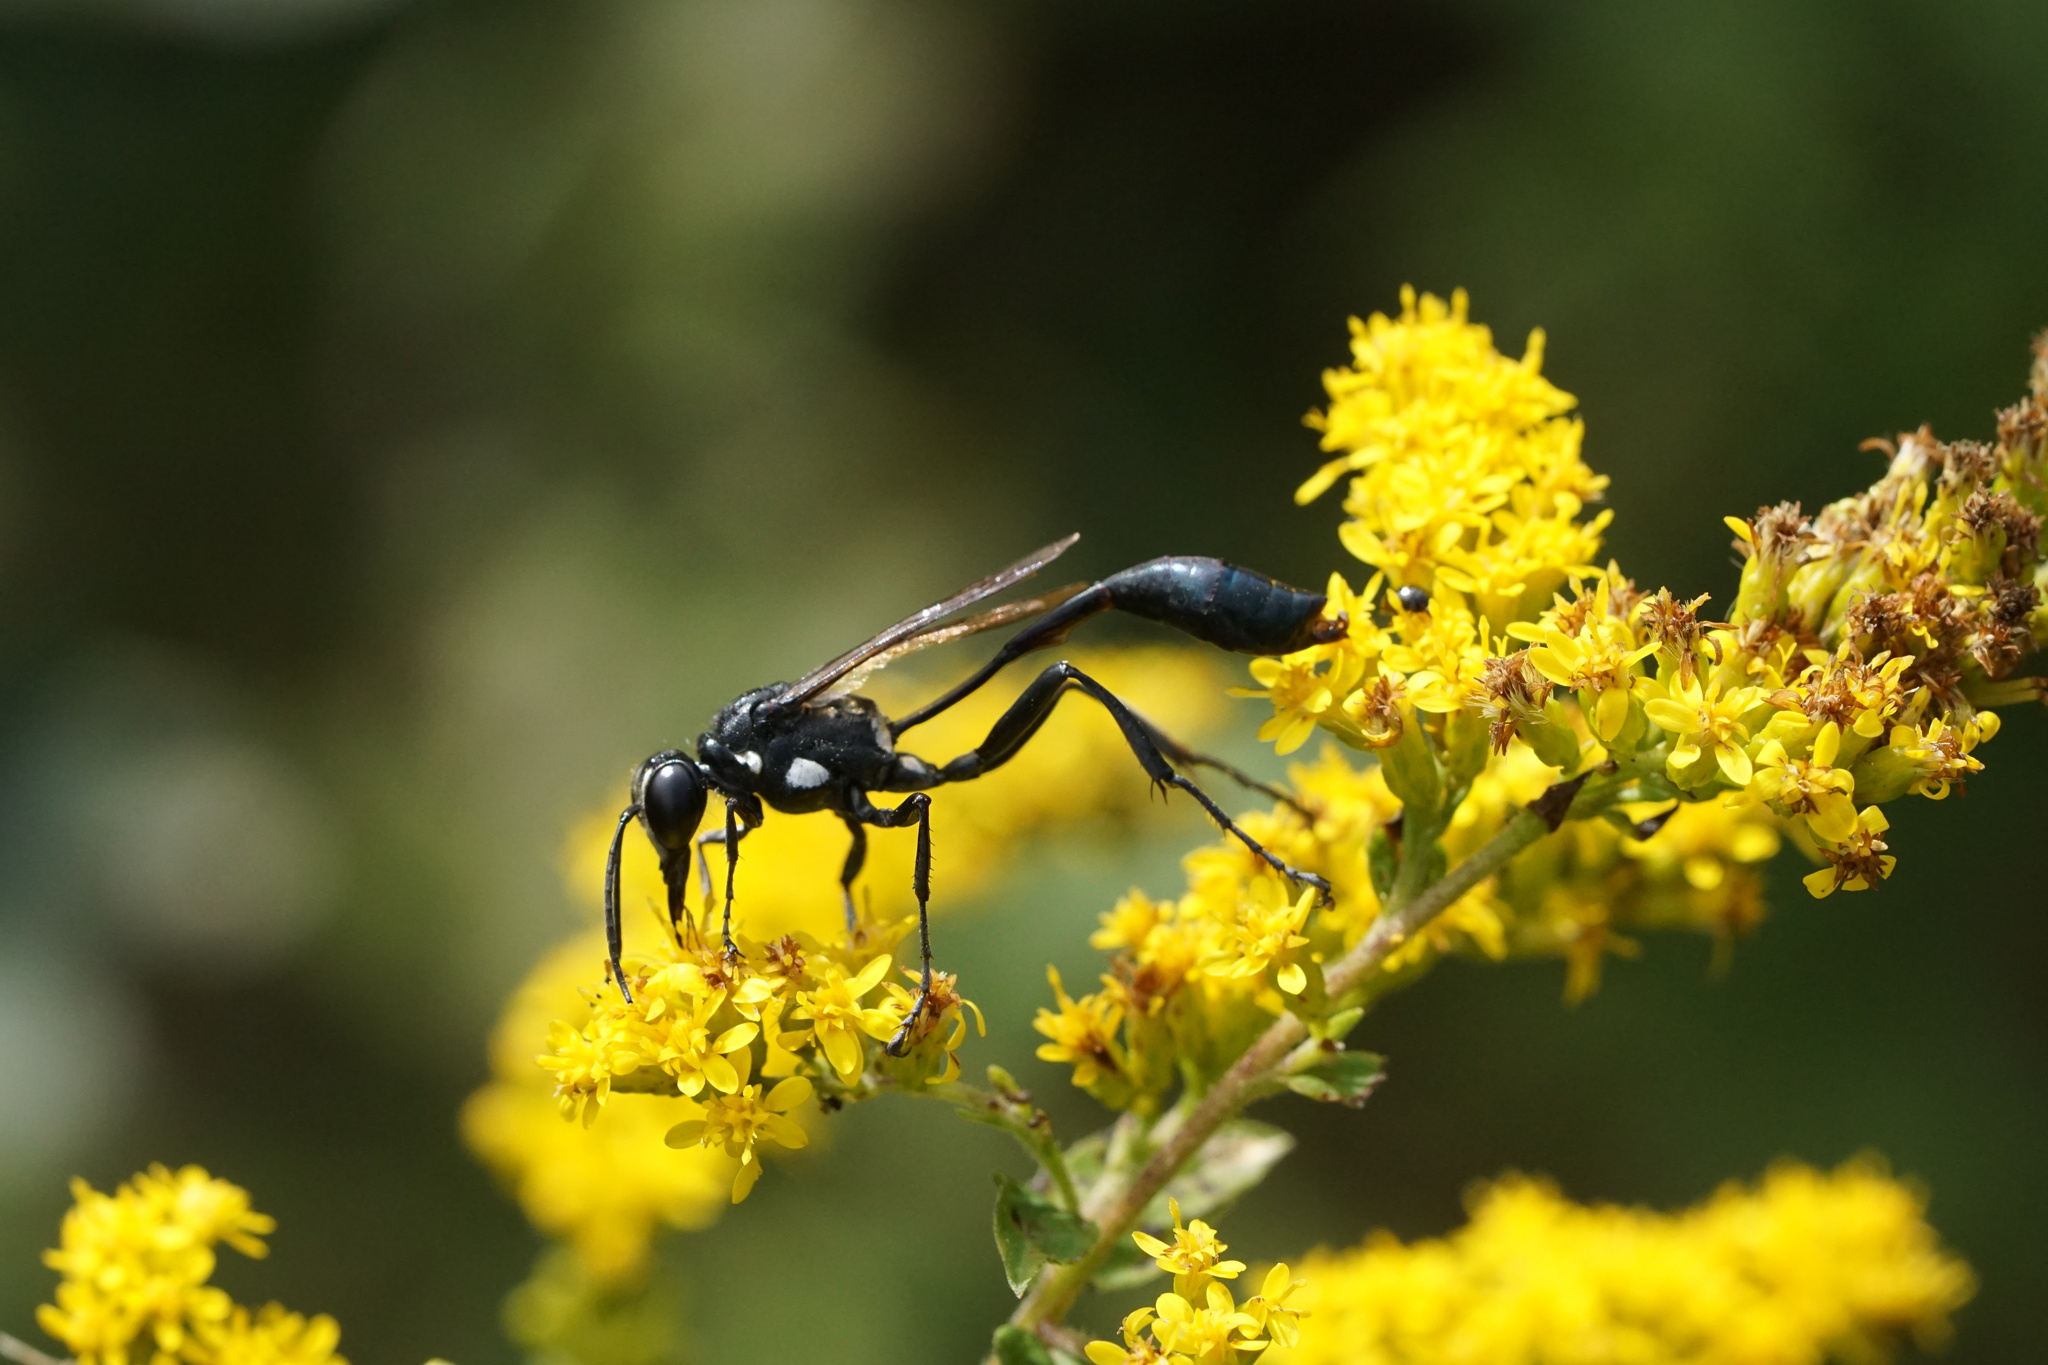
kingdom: Animalia
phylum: Arthropoda
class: Insecta
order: Hymenoptera
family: Sphecidae
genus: Eremnophila
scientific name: Eremnophila aureonotata
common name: Gold-marked thread-waisted wasp
